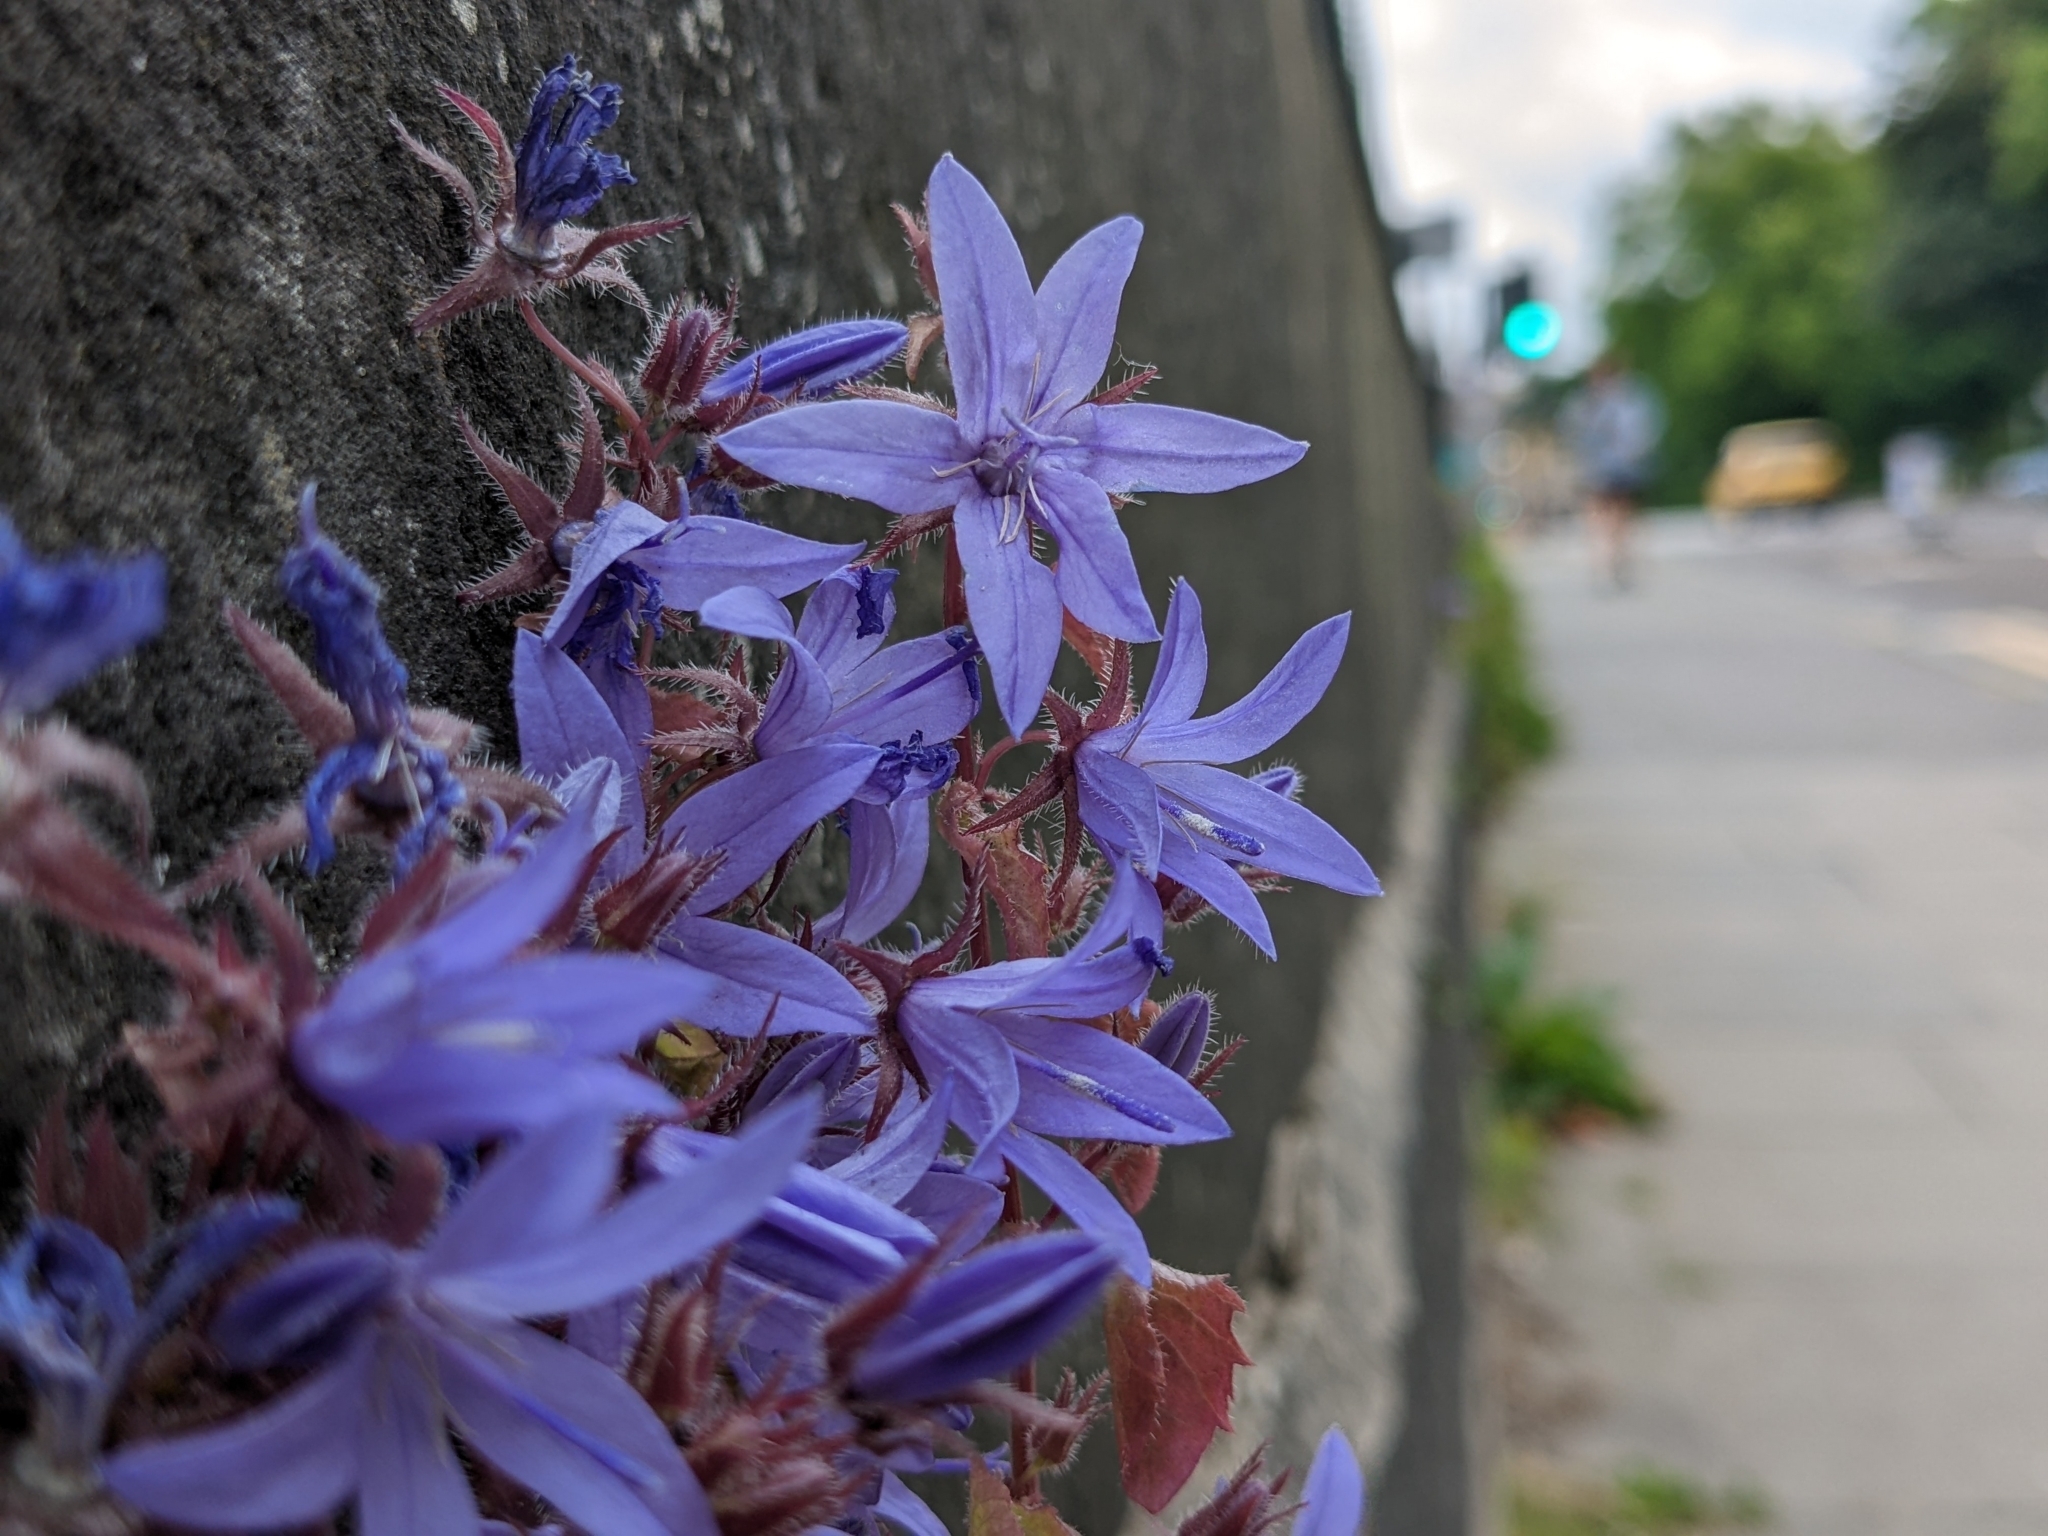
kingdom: Plantae
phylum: Tracheophyta
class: Magnoliopsida
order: Asterales
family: Campanulaceae
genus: Campanula
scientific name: Campanula poscharskyana
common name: Trailing bellflower
